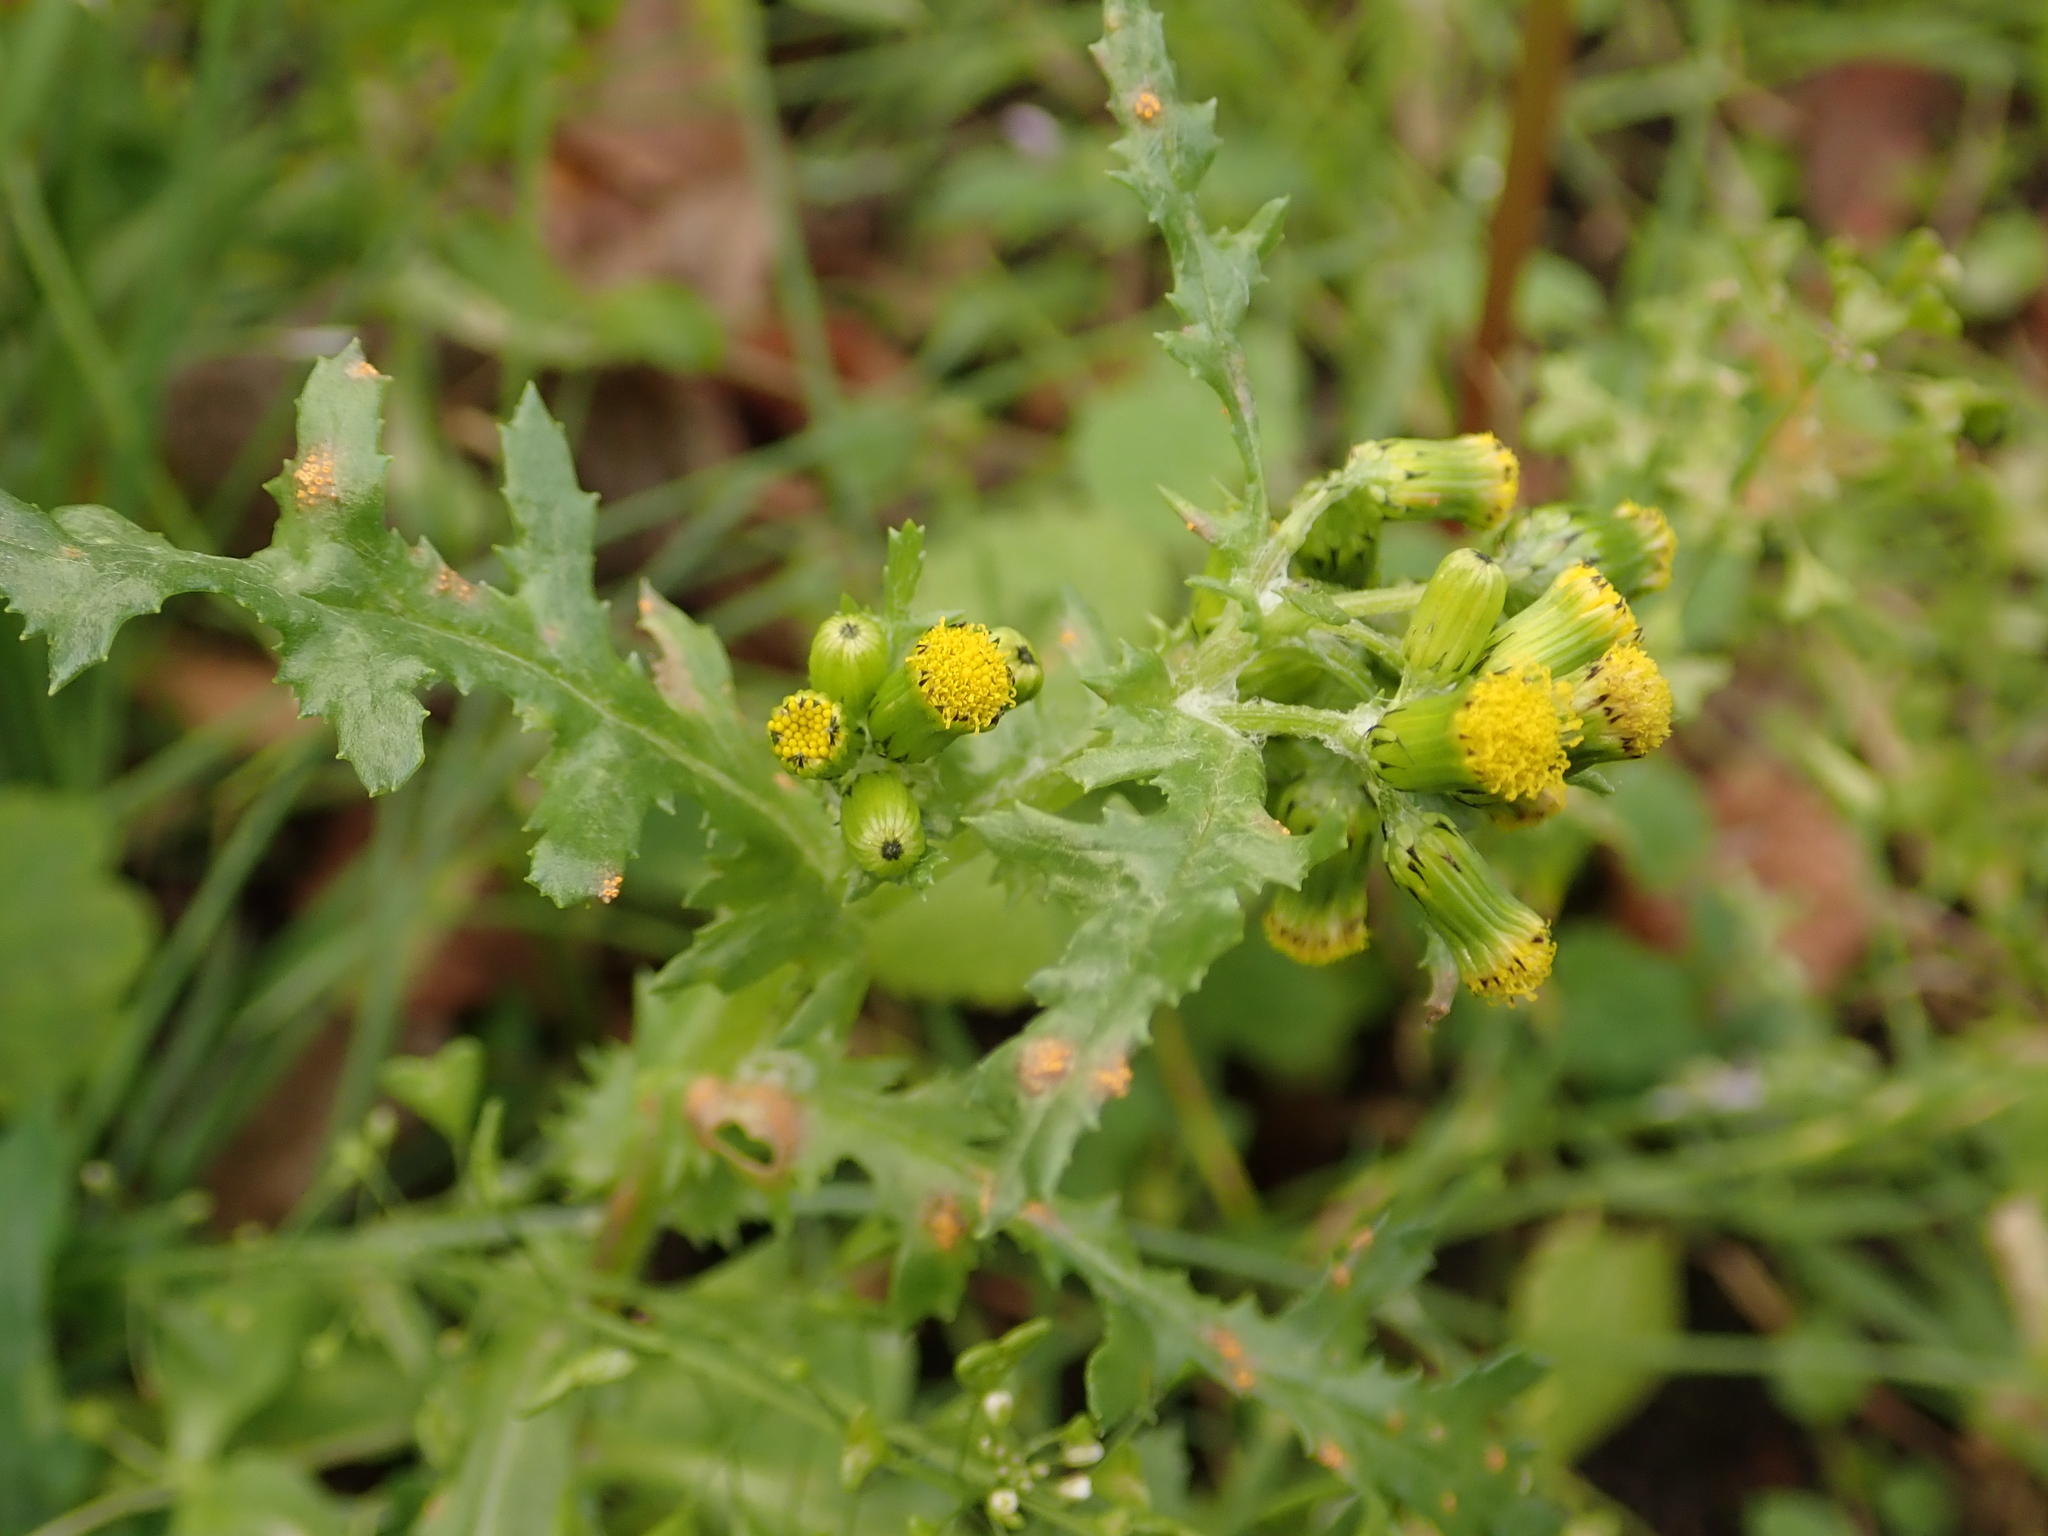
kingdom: Plantae
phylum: Tracheophyta
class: Magnoliopsida
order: Asterales
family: Asteraceae
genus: Senecio
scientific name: Senecio vulgaris
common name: Old-man-in-the-spring
